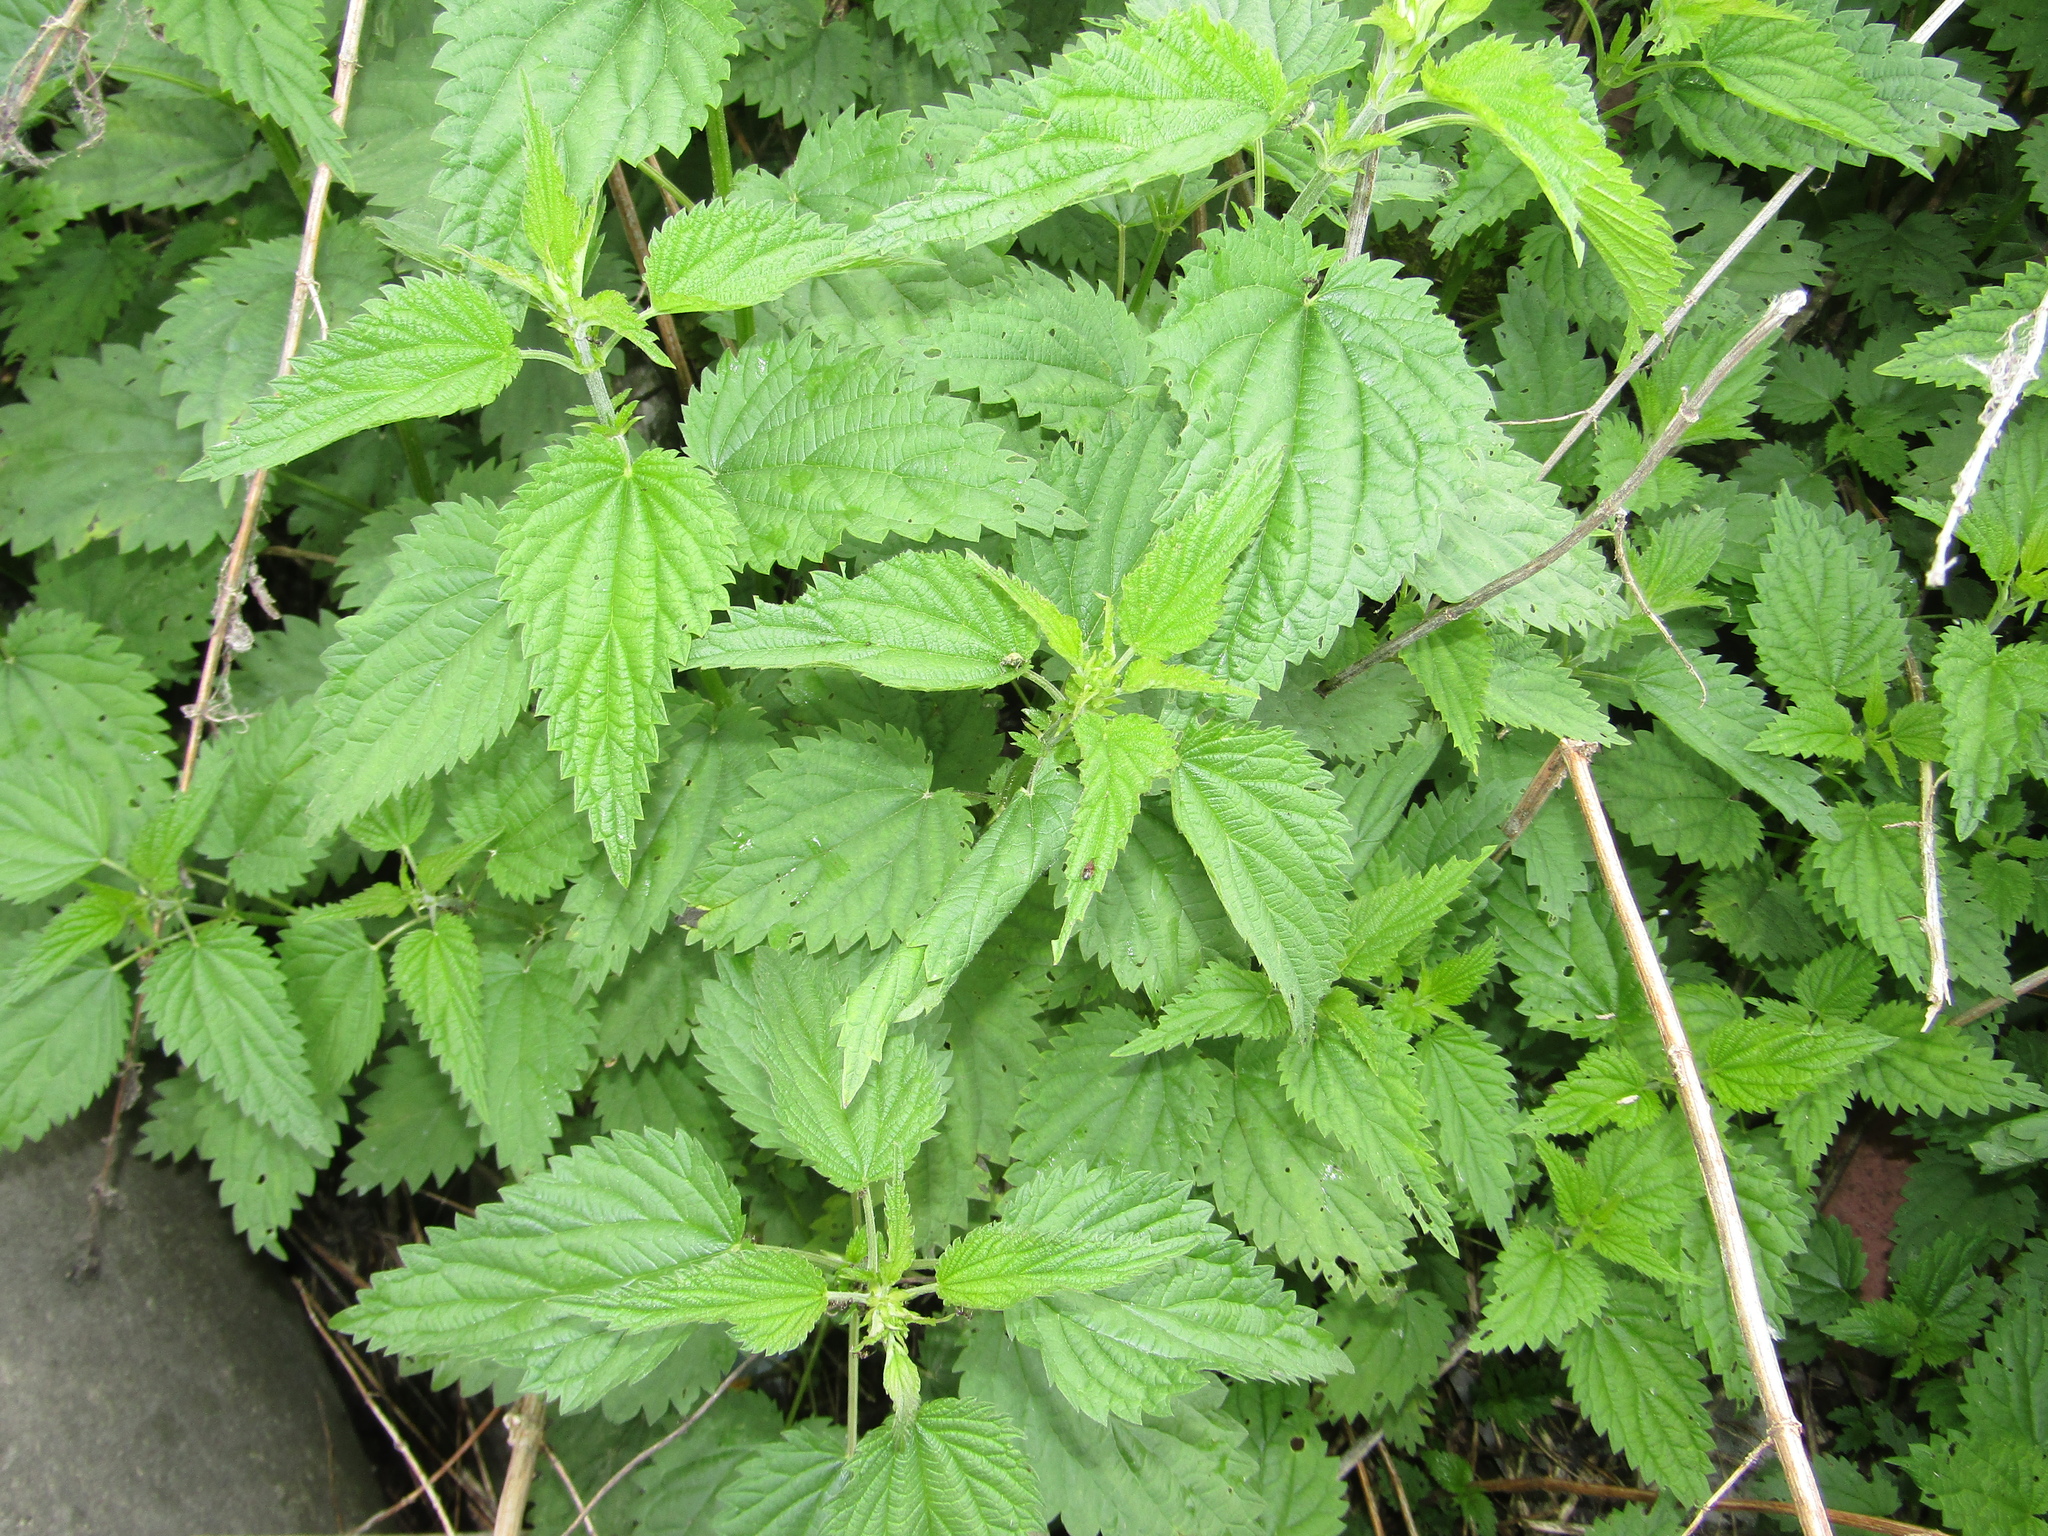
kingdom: Plantae
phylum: Tracheophyta
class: Magnoliopsida
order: Rosales
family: Urticaceae
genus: Urtica
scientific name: Urtica dioica
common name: Common nettle
